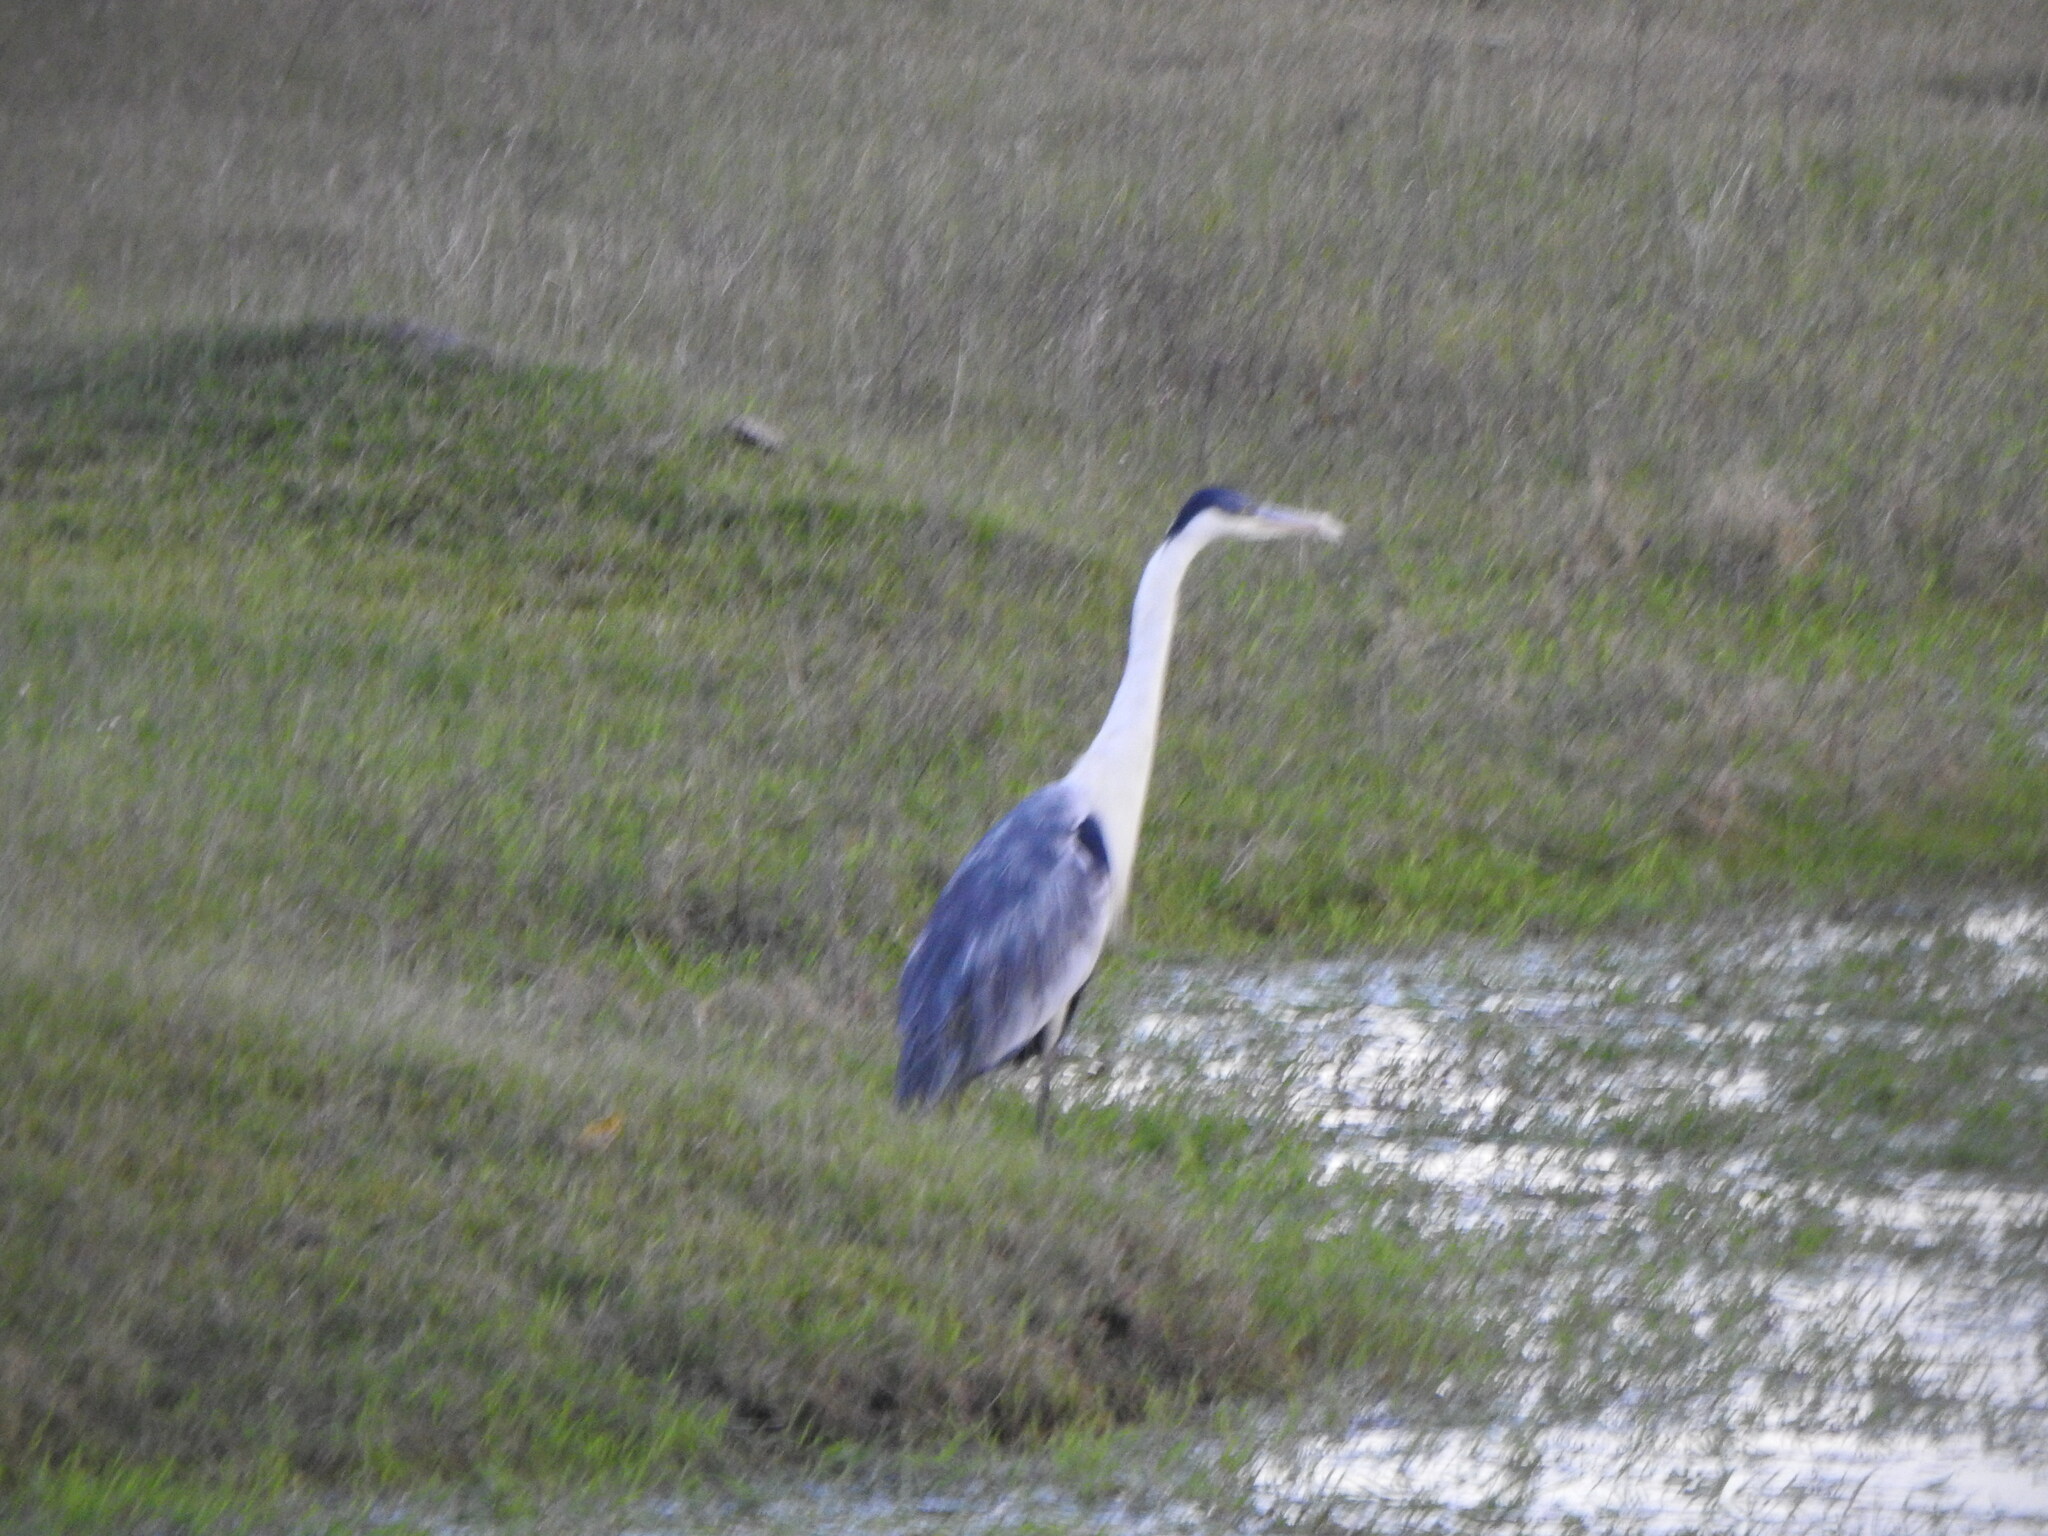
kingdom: Animalia
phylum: Chordata
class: Aves
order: Pelecaniformes
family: Ardeidae
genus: Ardea
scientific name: Ardea cocoi
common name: Cocoi heron
